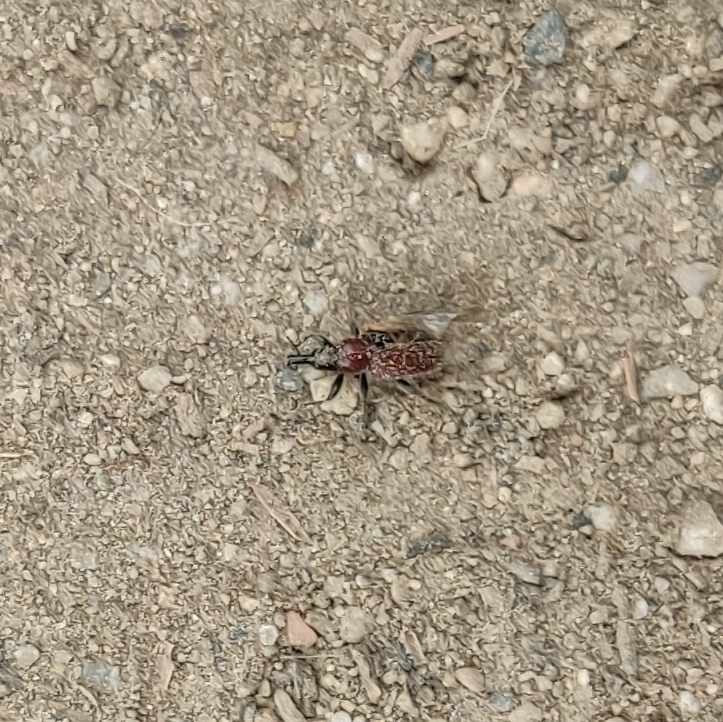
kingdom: Animalia
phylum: Arthropoda
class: Insecta
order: Coleoptera
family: Attelabidae
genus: Lasiorhynchites
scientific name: Lasiorhynchites caeruleocephalus
